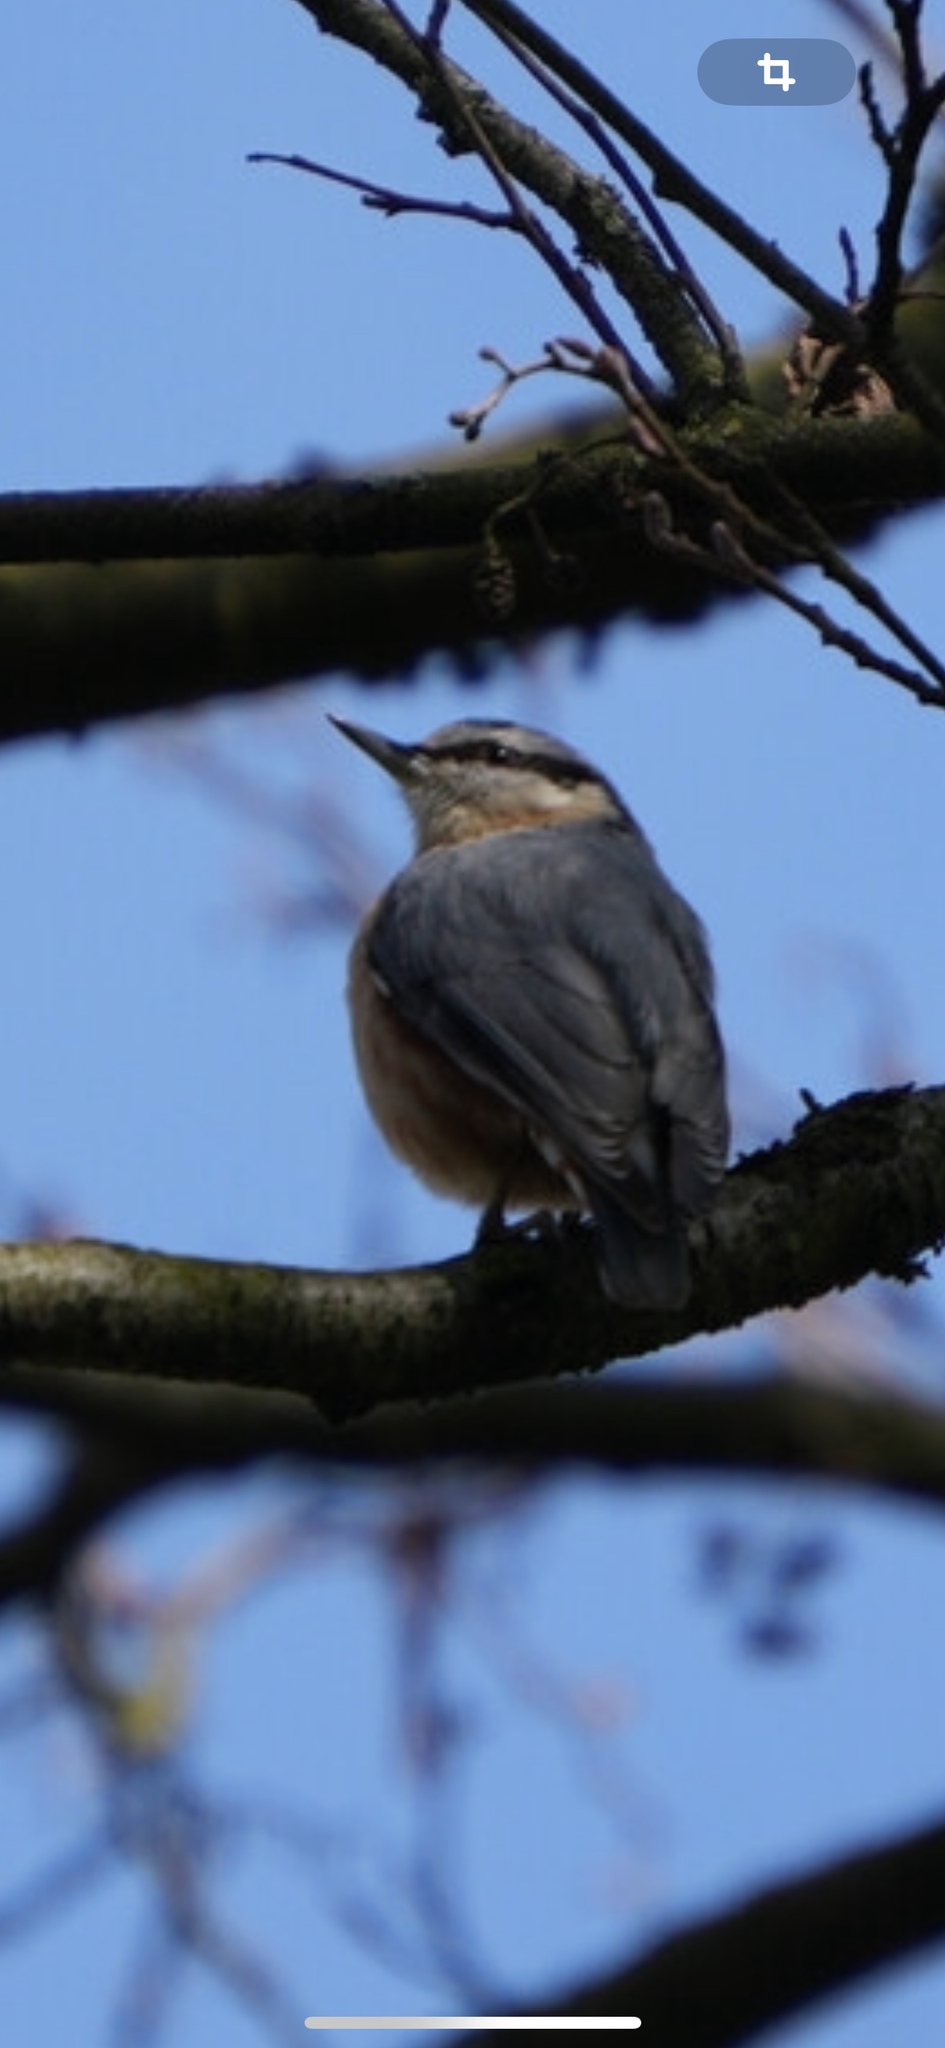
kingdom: Animalia
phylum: Chordata
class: Aves
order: Passeriformes
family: Sittidae
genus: Sitta
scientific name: Sitta europaea
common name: Eurasian nuthatch
